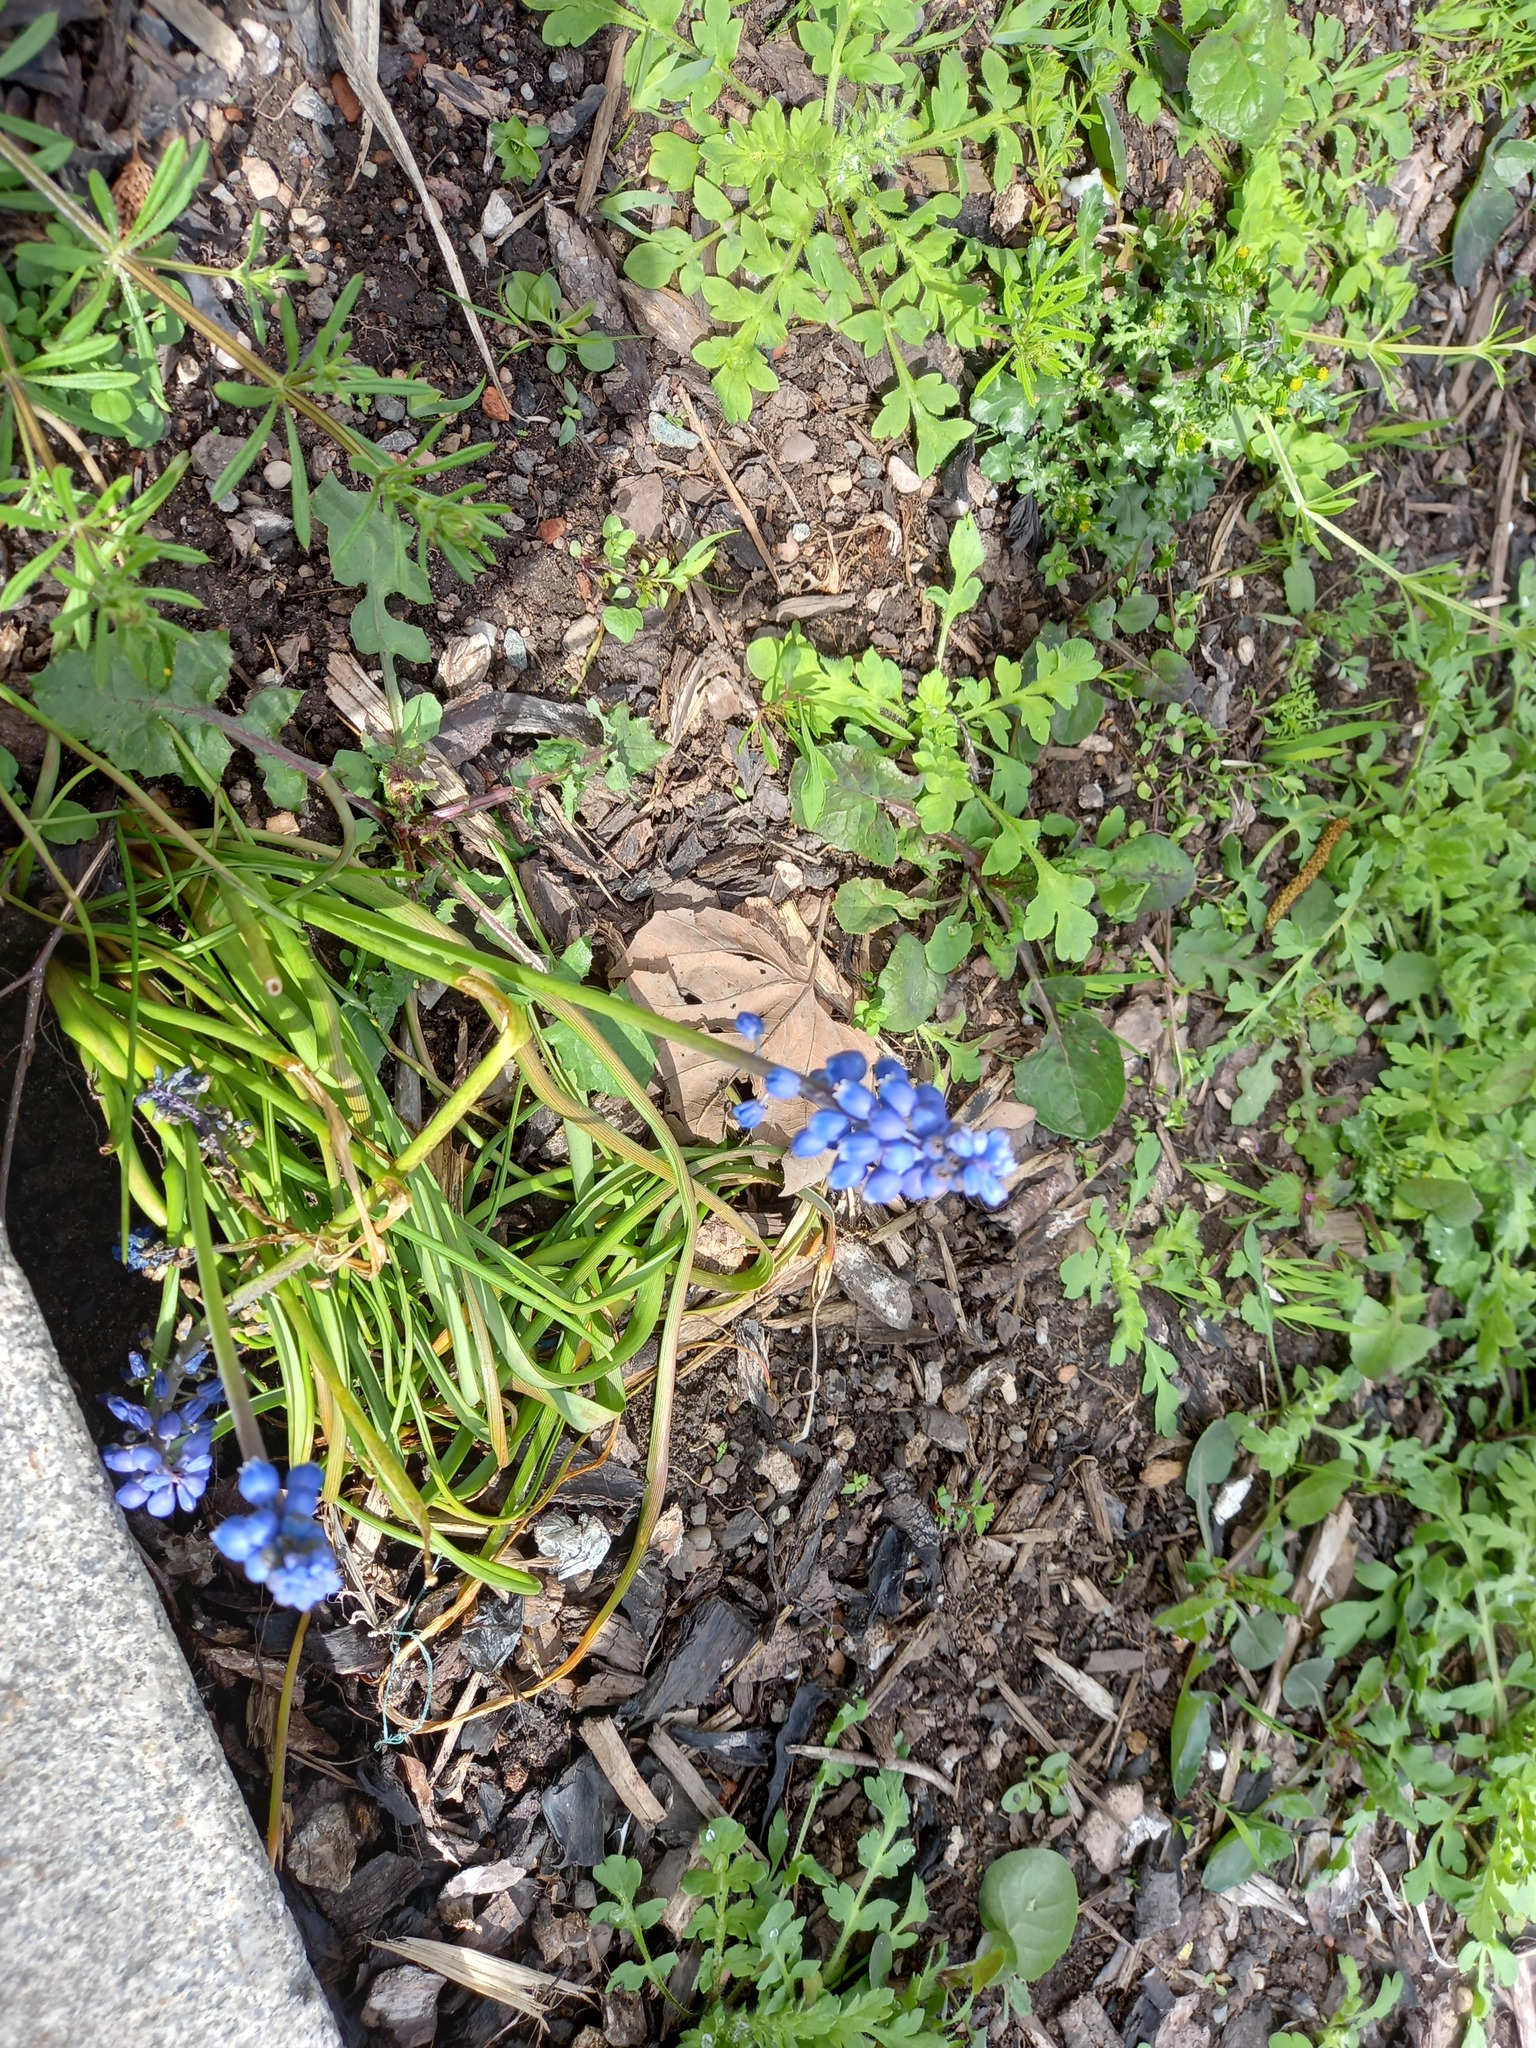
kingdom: Plantae
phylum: Tracheophyta
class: Liliopsida
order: Asparagales
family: Asparagaceae
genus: Muscari
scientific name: Muscari armeniacum
